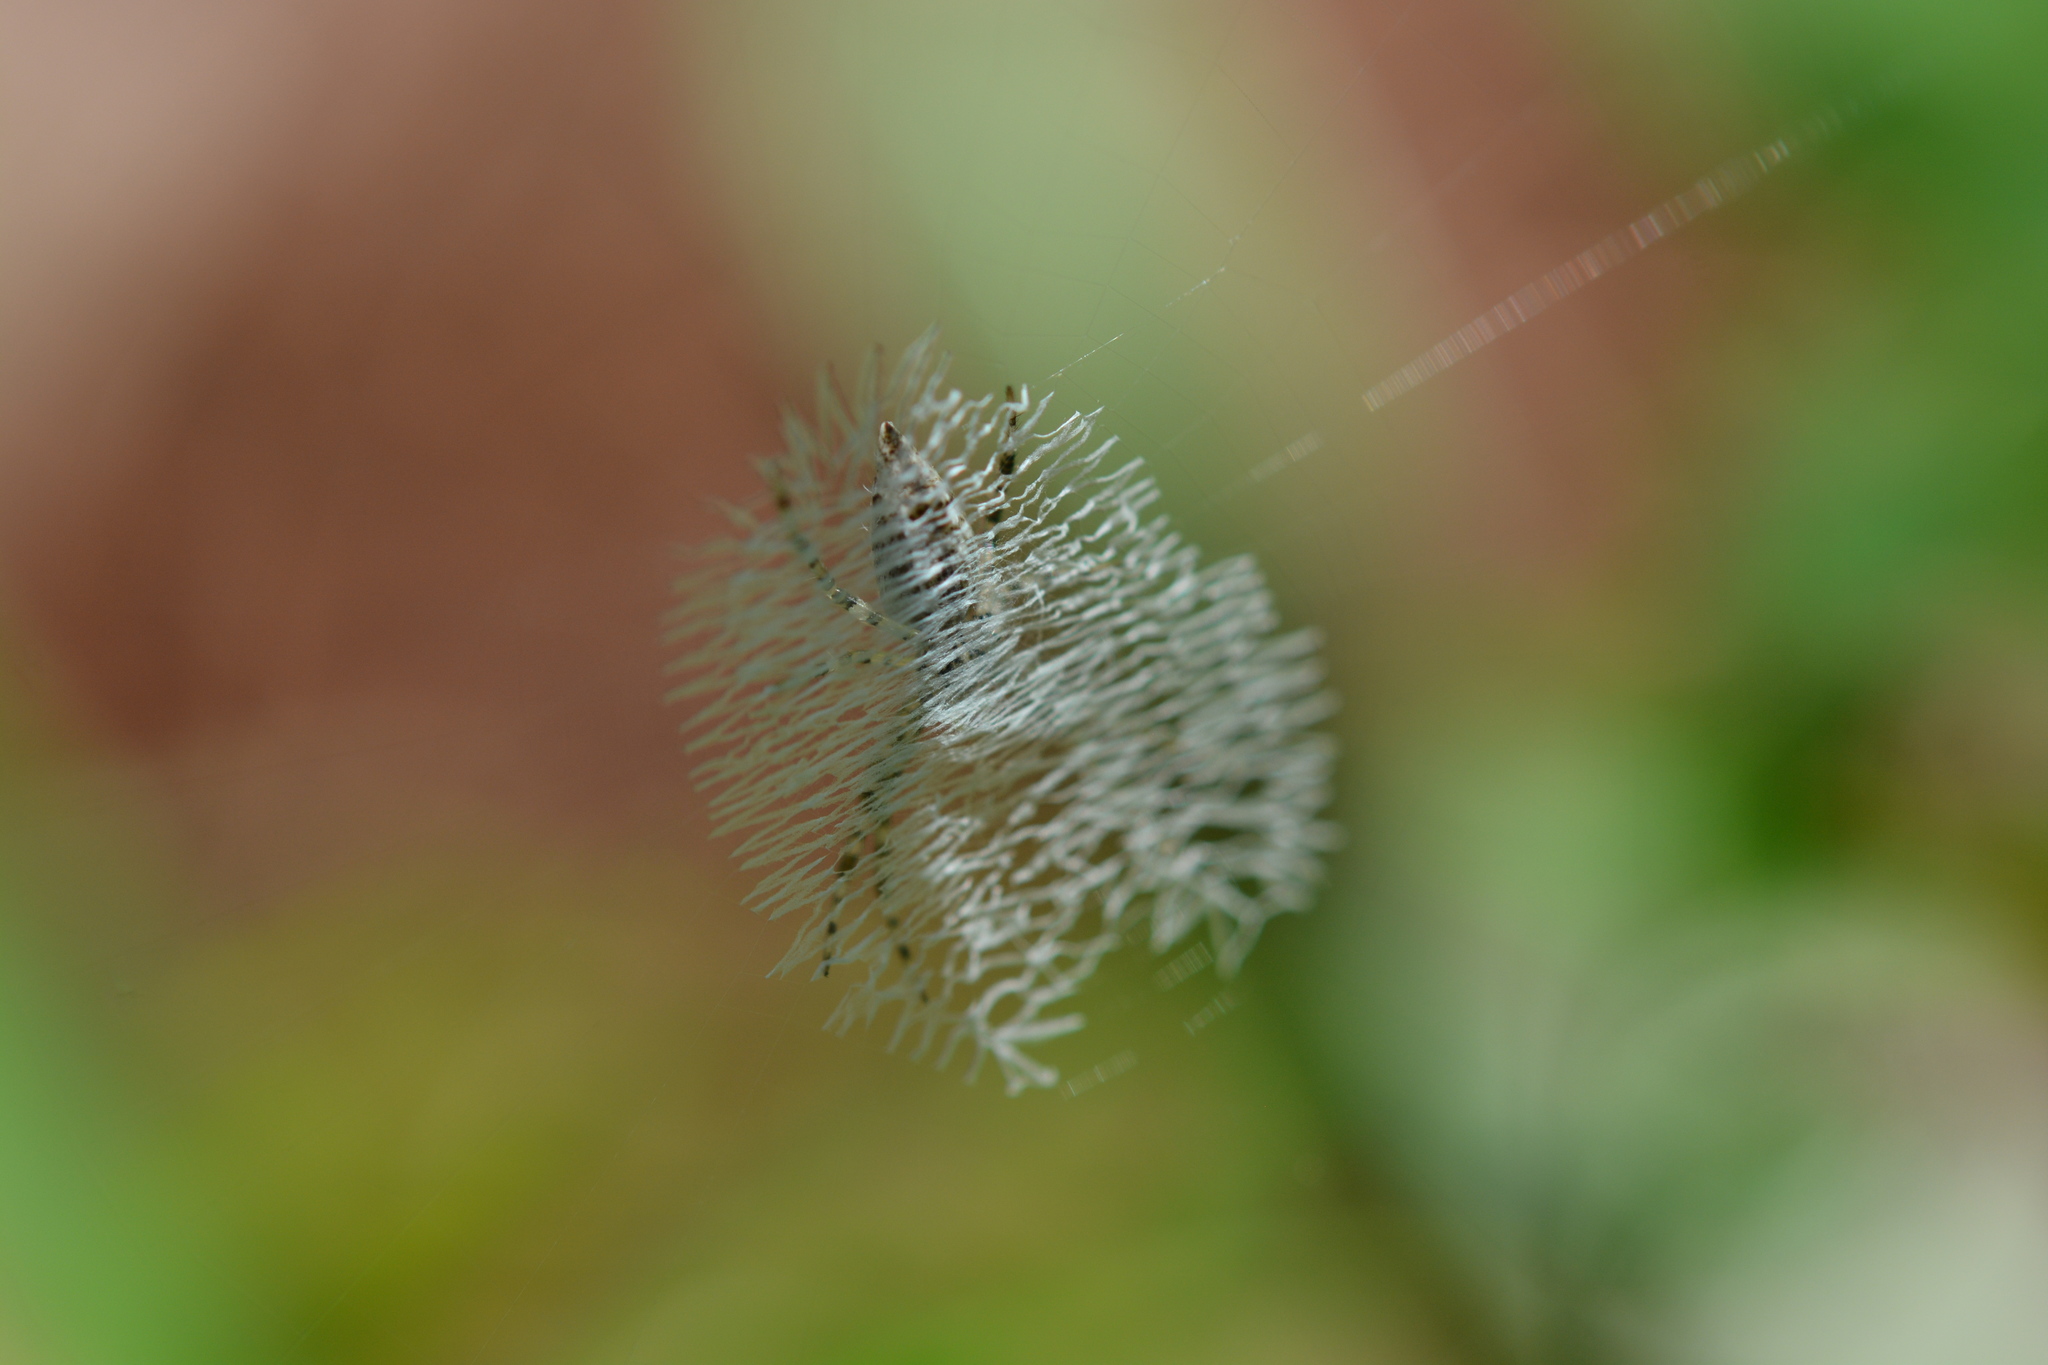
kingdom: Animalia
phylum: Arthropoda
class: Arachnida
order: Araneae
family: Araneidae
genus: Argiope
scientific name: Argiope aurantia
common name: Orb weavers
